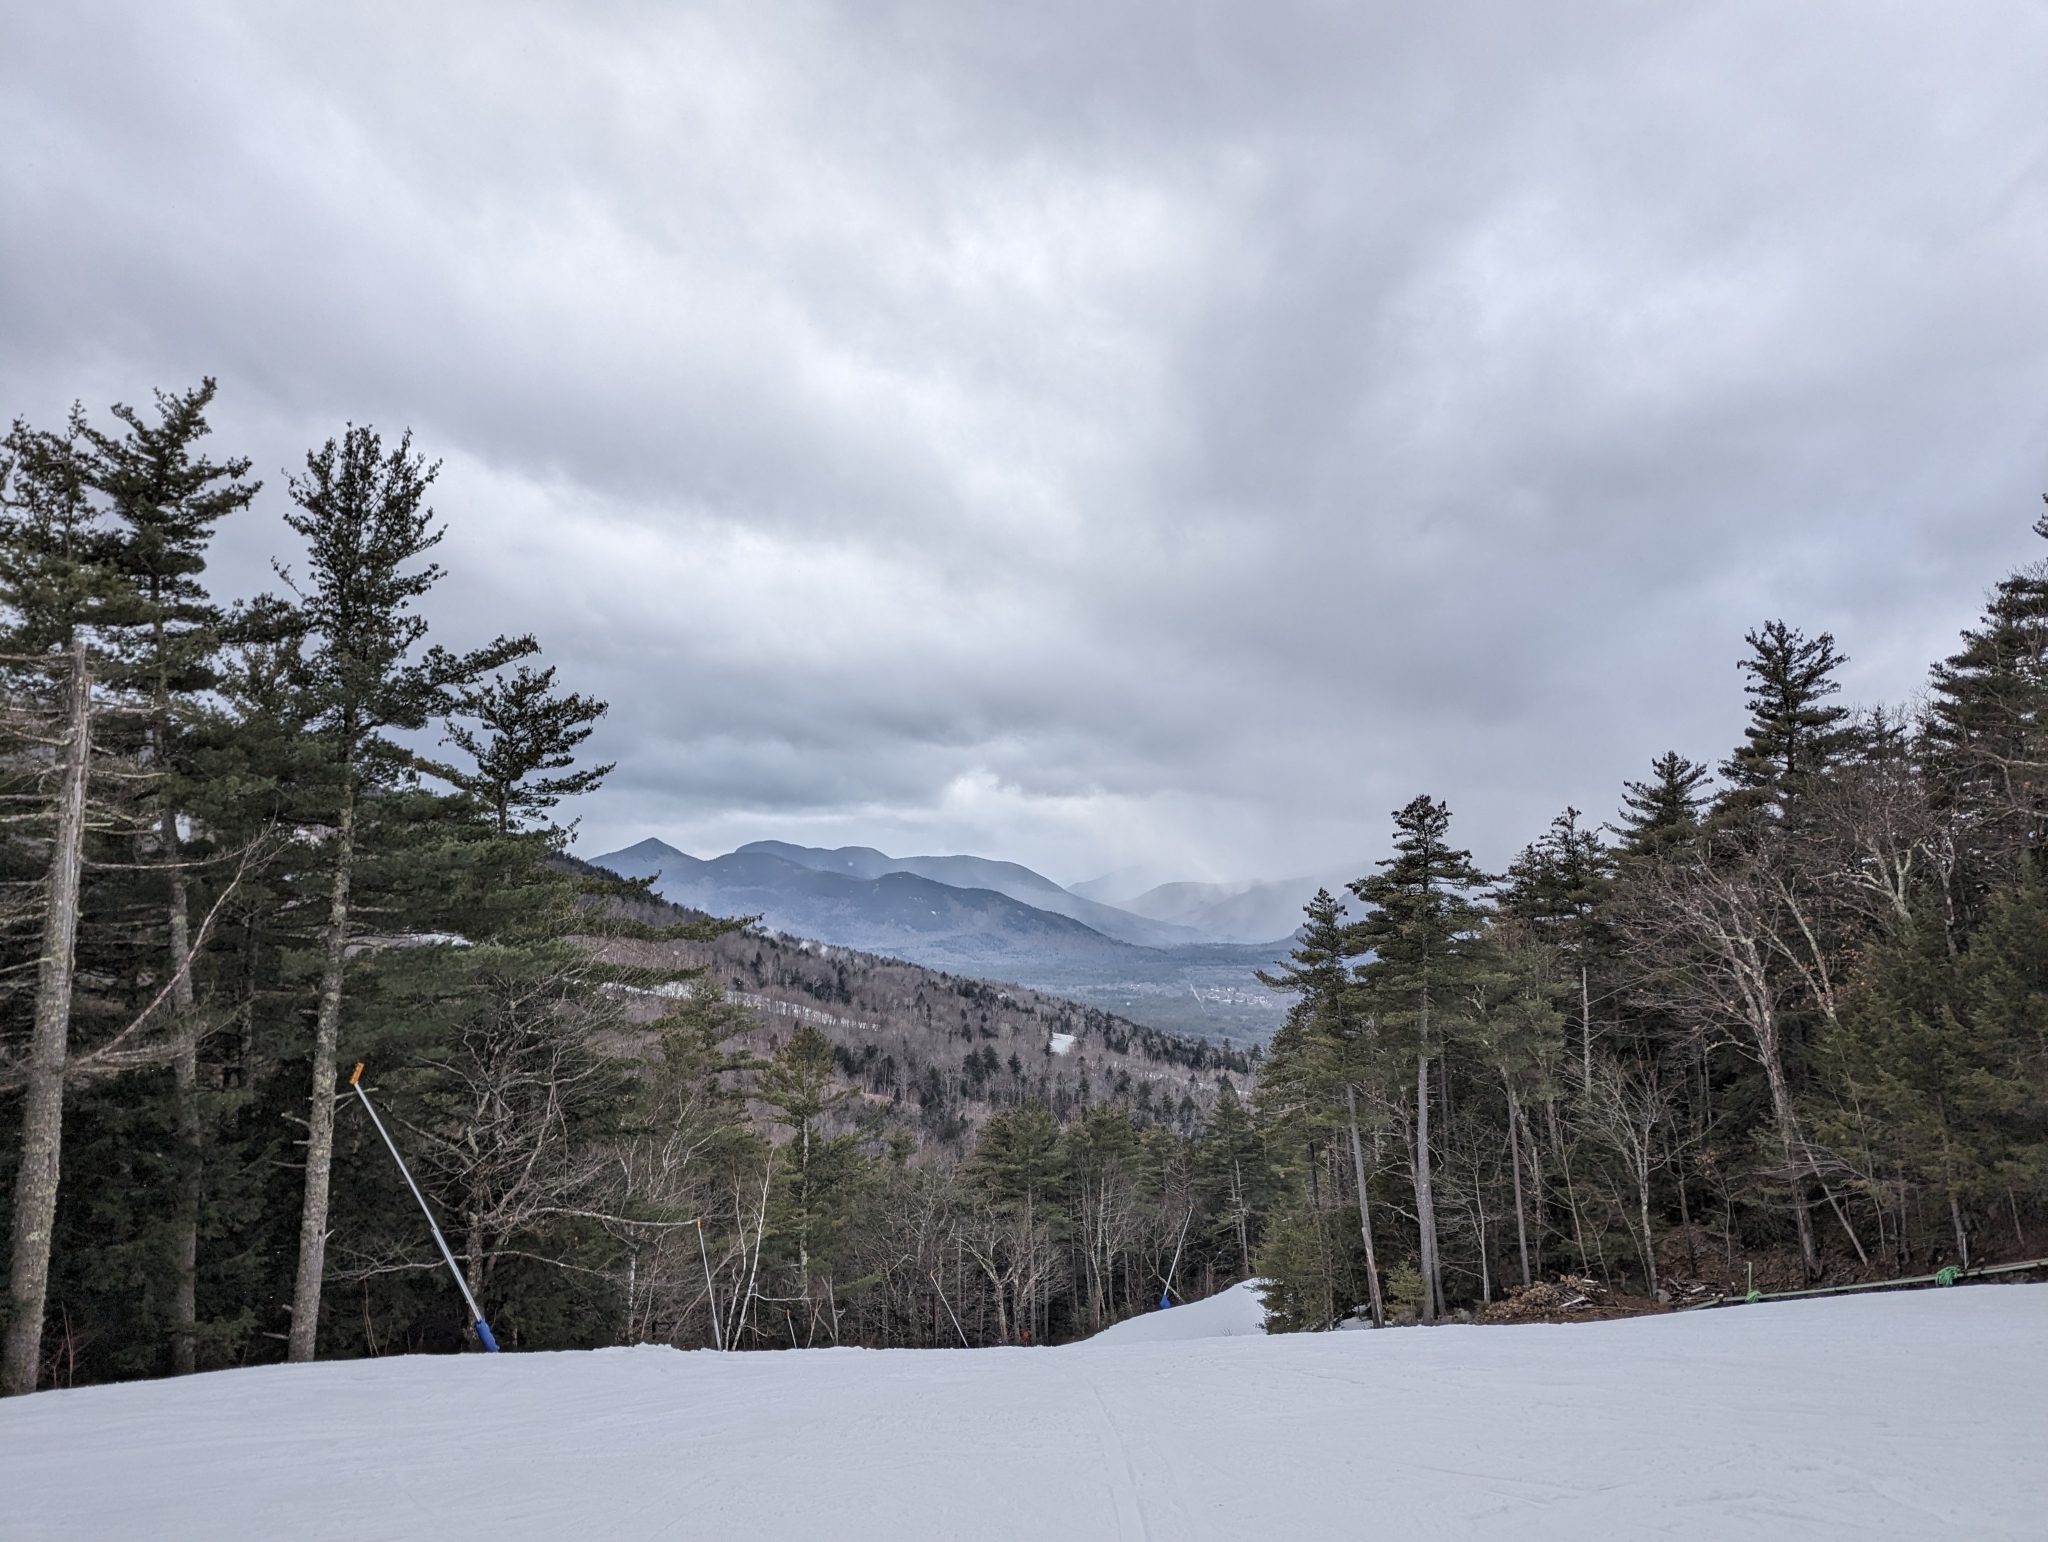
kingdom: Plantae
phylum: Tracheophyta
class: Pinopsida
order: Pinales
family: Pinaceae
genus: Pinus
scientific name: Pinus strobus
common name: Weymouth pine
